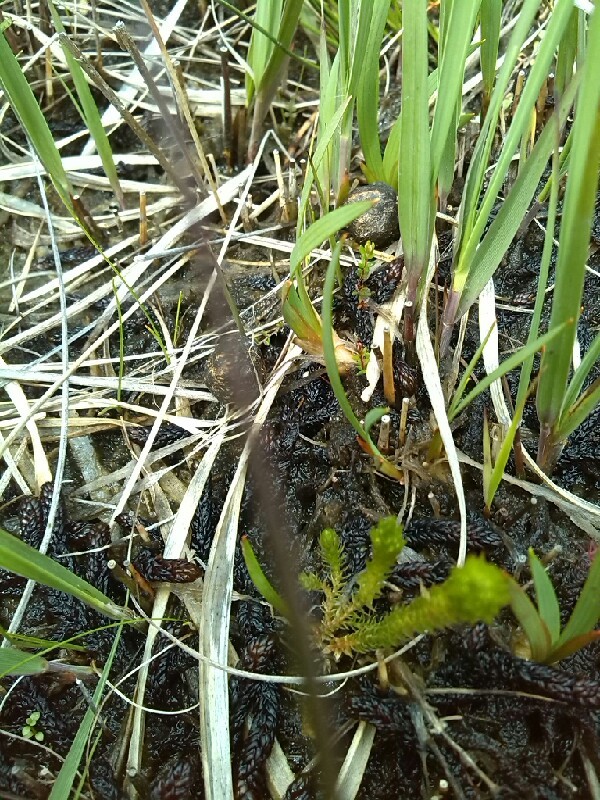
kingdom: Plantae
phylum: Tracheophyta
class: Lycopodiopsida
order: Selaginellales
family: Selaginellaceae
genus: Selaginella
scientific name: Selaginella selaginoides
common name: Prickly mountain-moss
